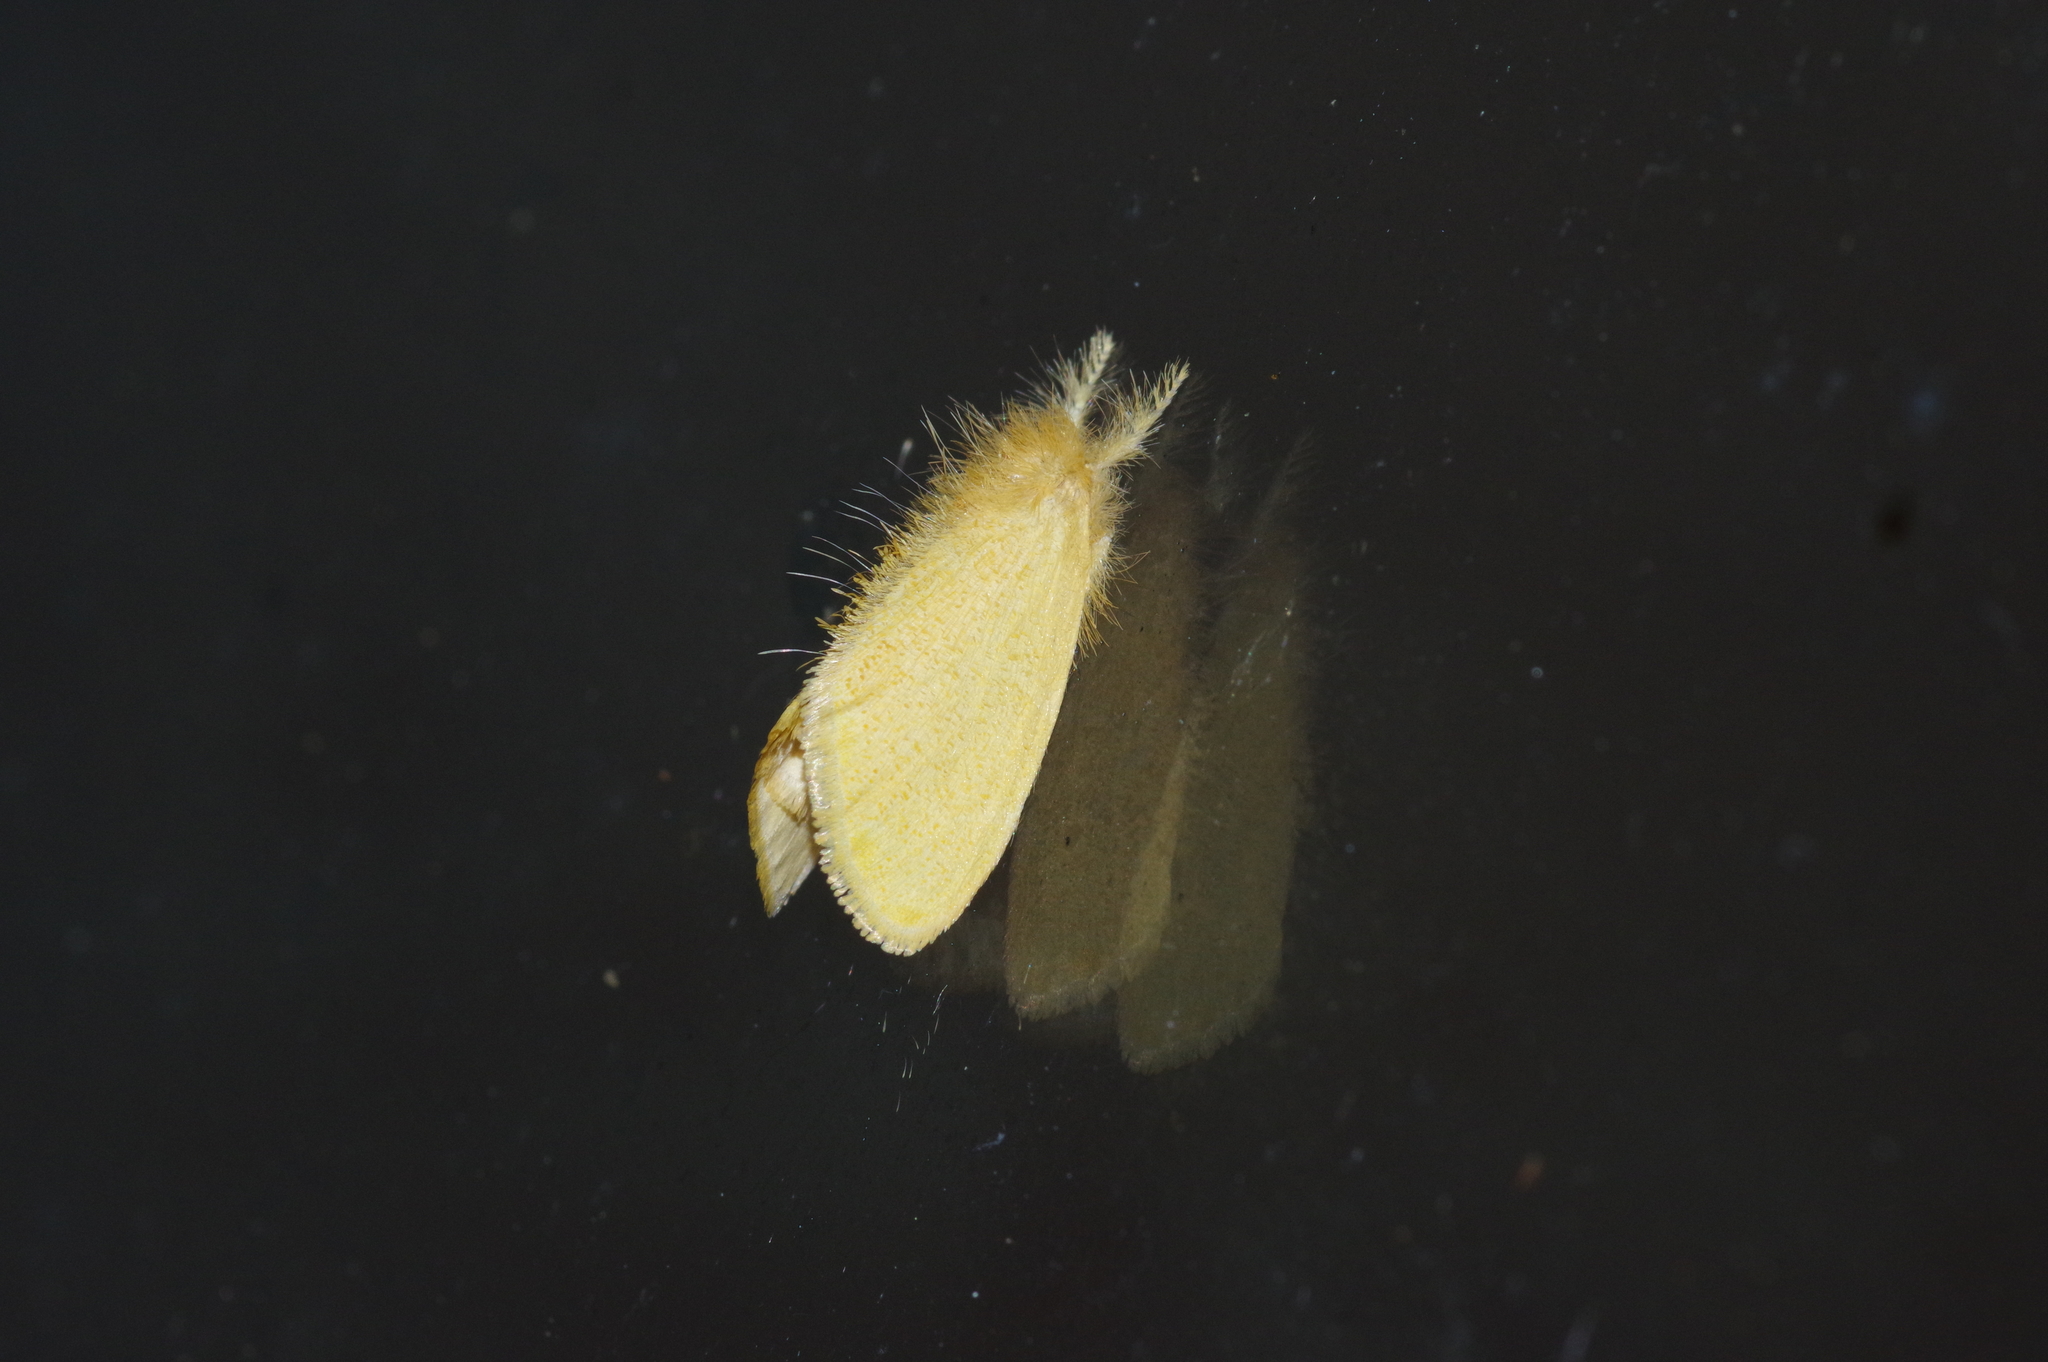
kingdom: Animalia
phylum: Arthropoda
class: Insecta
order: Lepidoptera
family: Erebidae
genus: Euproctis
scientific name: Euproctis taiwana
